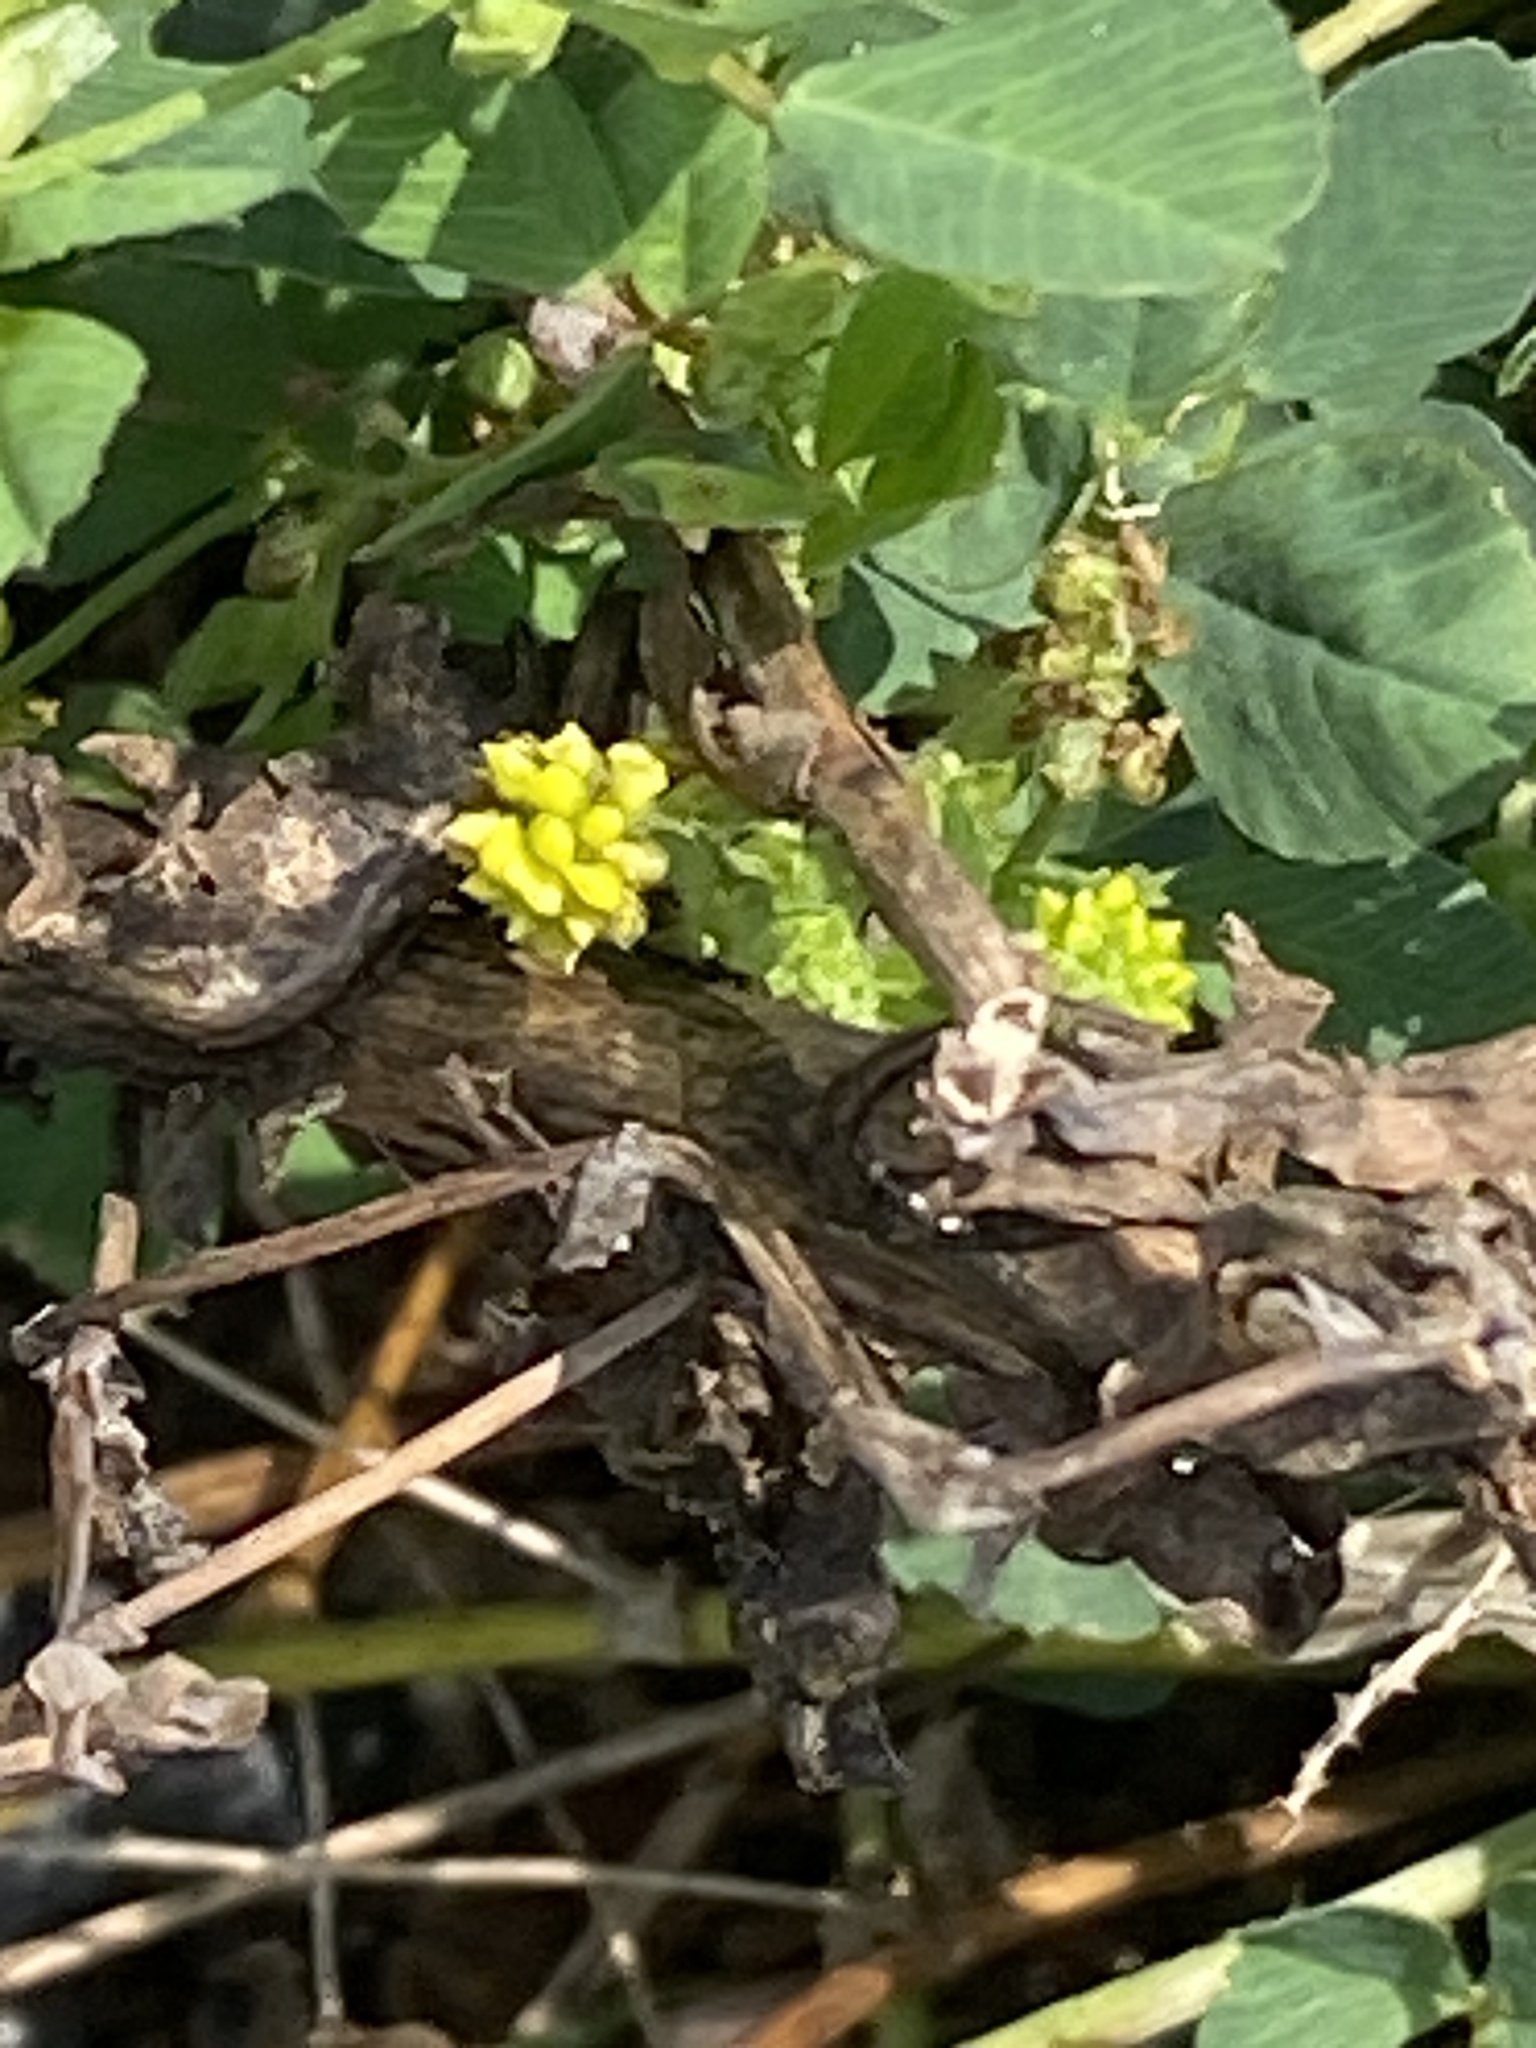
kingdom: Plantae
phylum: Tracheophyta
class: Magnoliopsida
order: Fabales
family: Fabaceae
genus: Medicago
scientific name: Medicago lupulina
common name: Black medick
